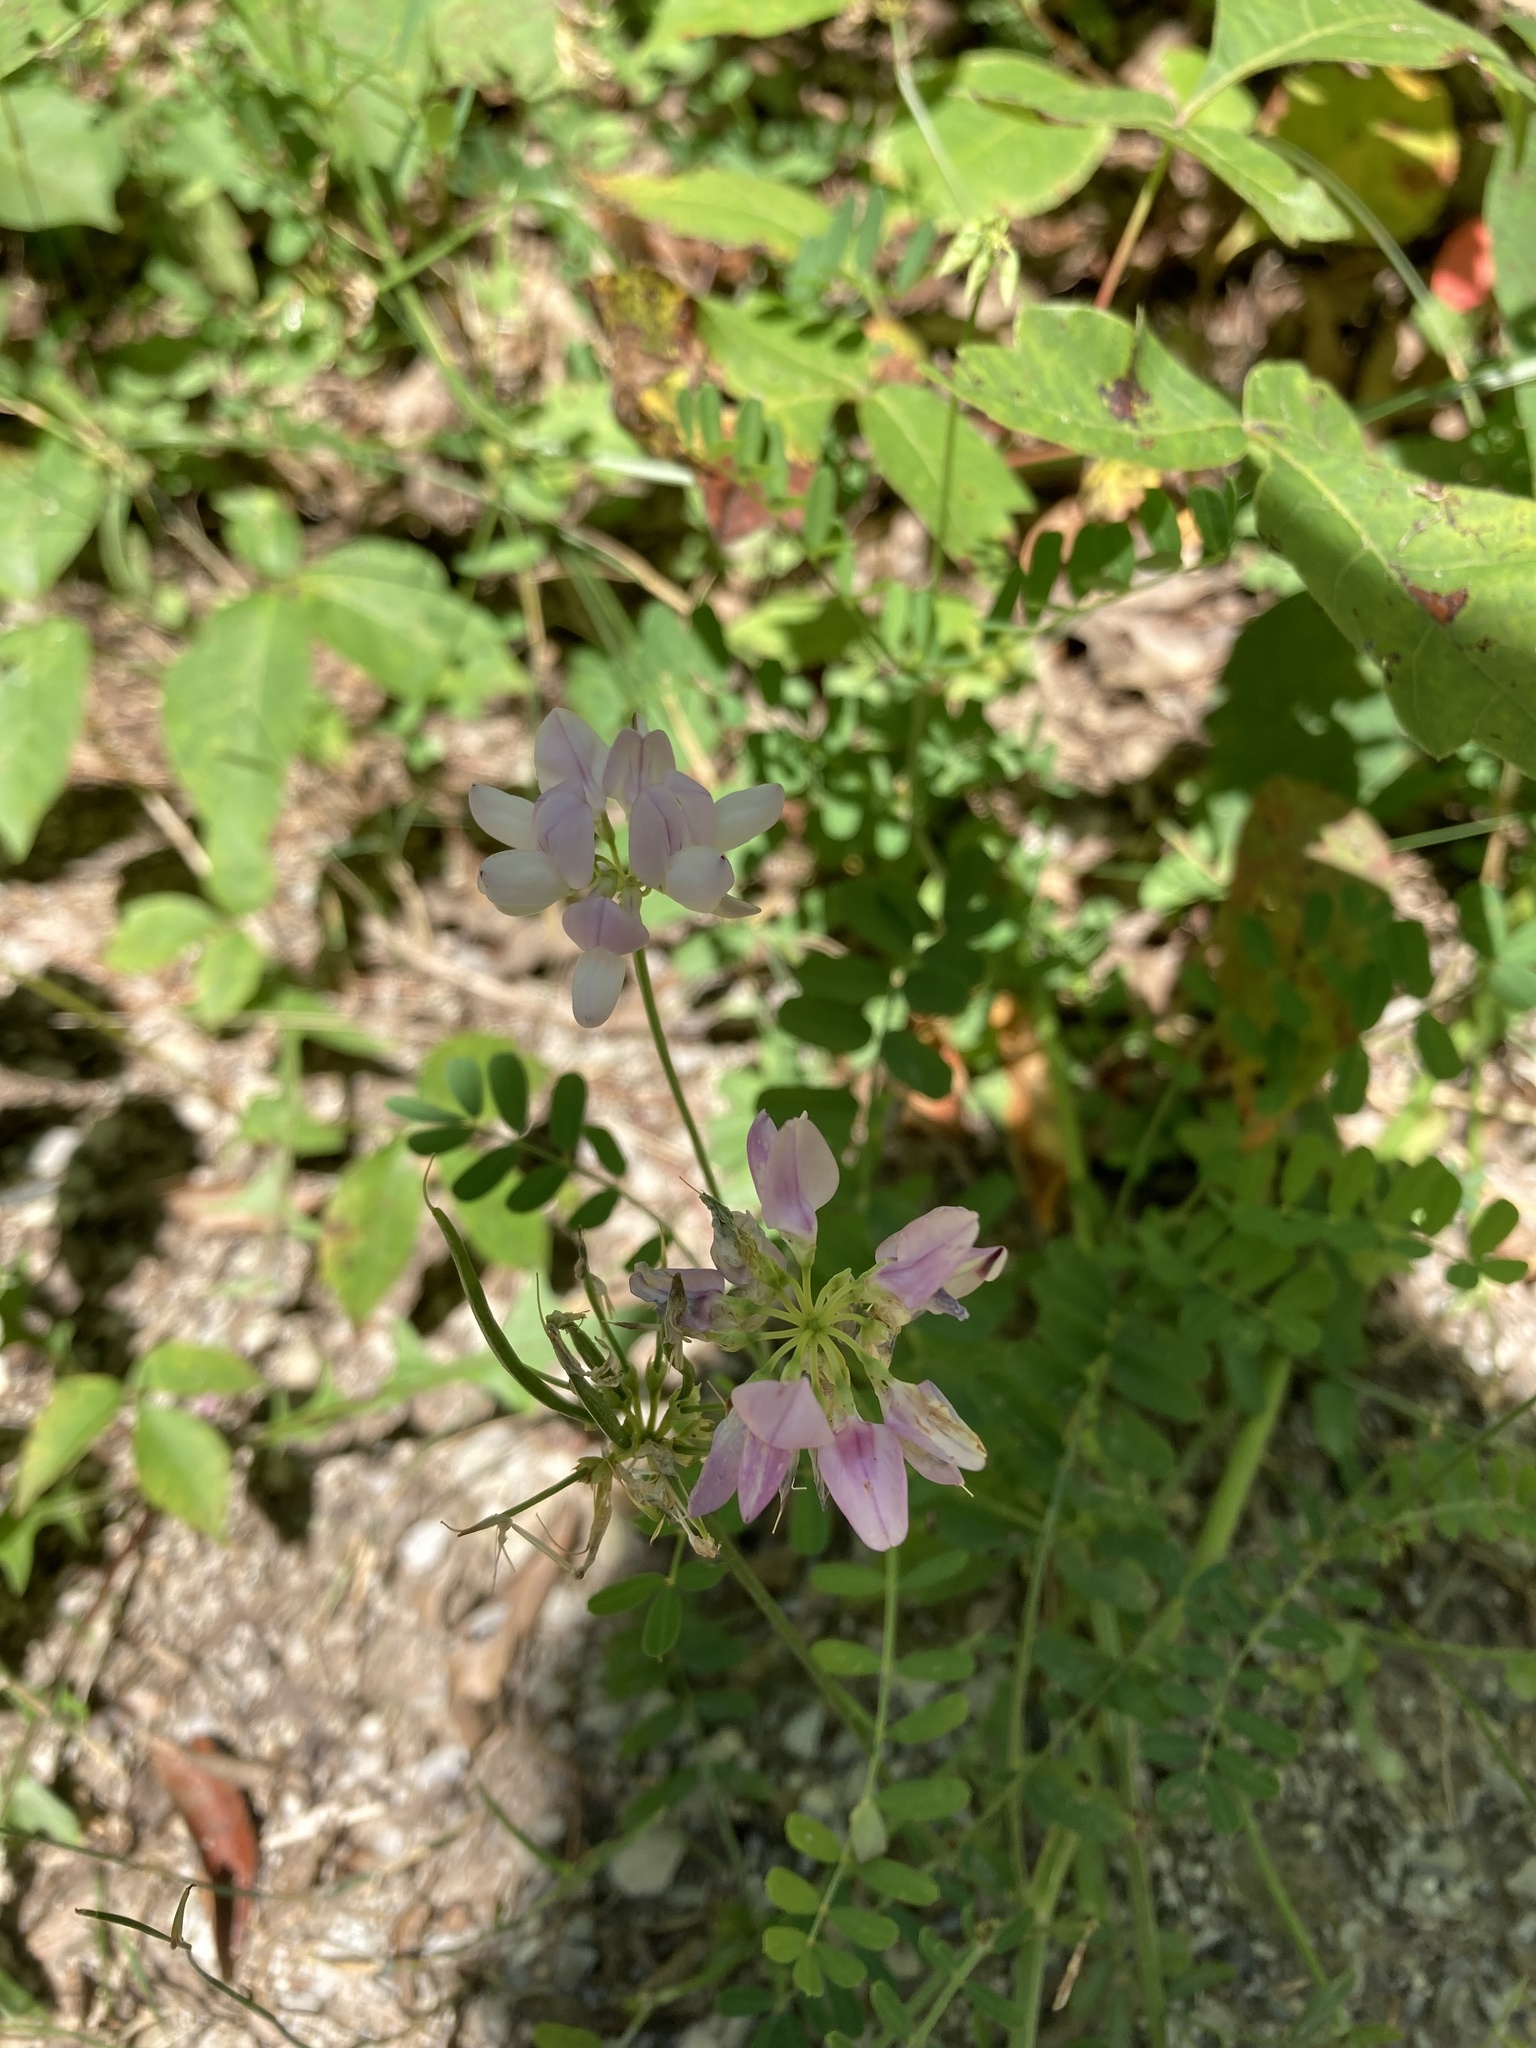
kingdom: Plantae
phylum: Tracheophyta
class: Magnoliopsida
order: Fabales
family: Fabaceae
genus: Coronilla
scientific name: Coronilla varia
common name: Crownvetch
